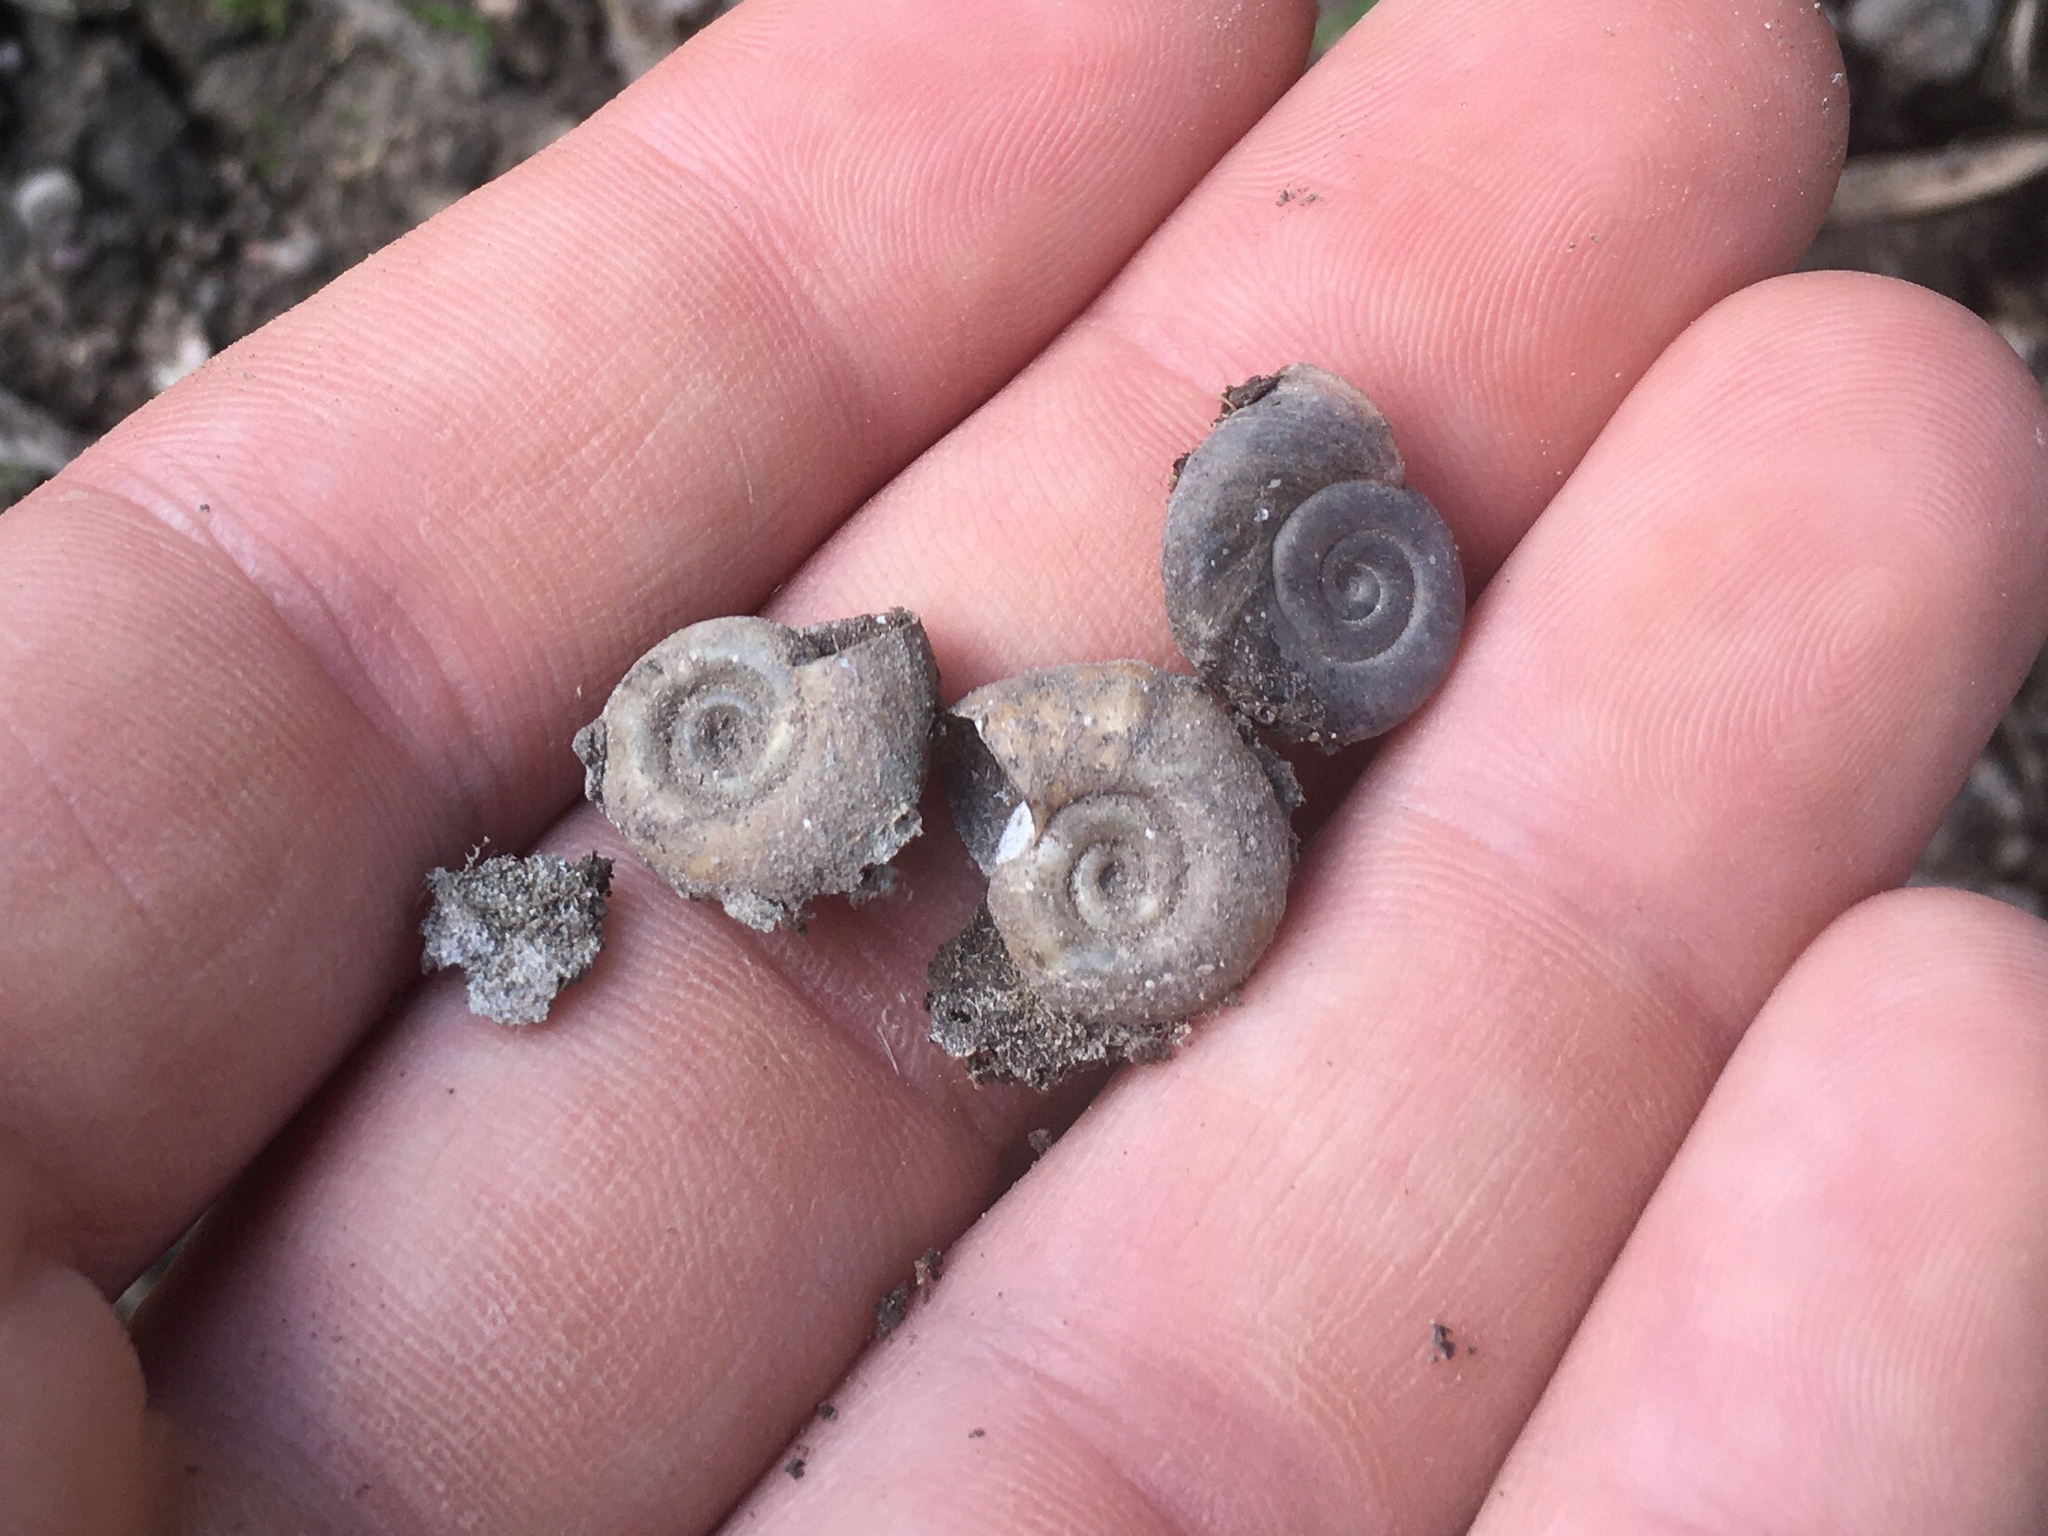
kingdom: Animalia
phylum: Mollusca
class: Gastropoda
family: Planorbidae
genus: Biomphalaria
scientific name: Biomphalaria peregrina
